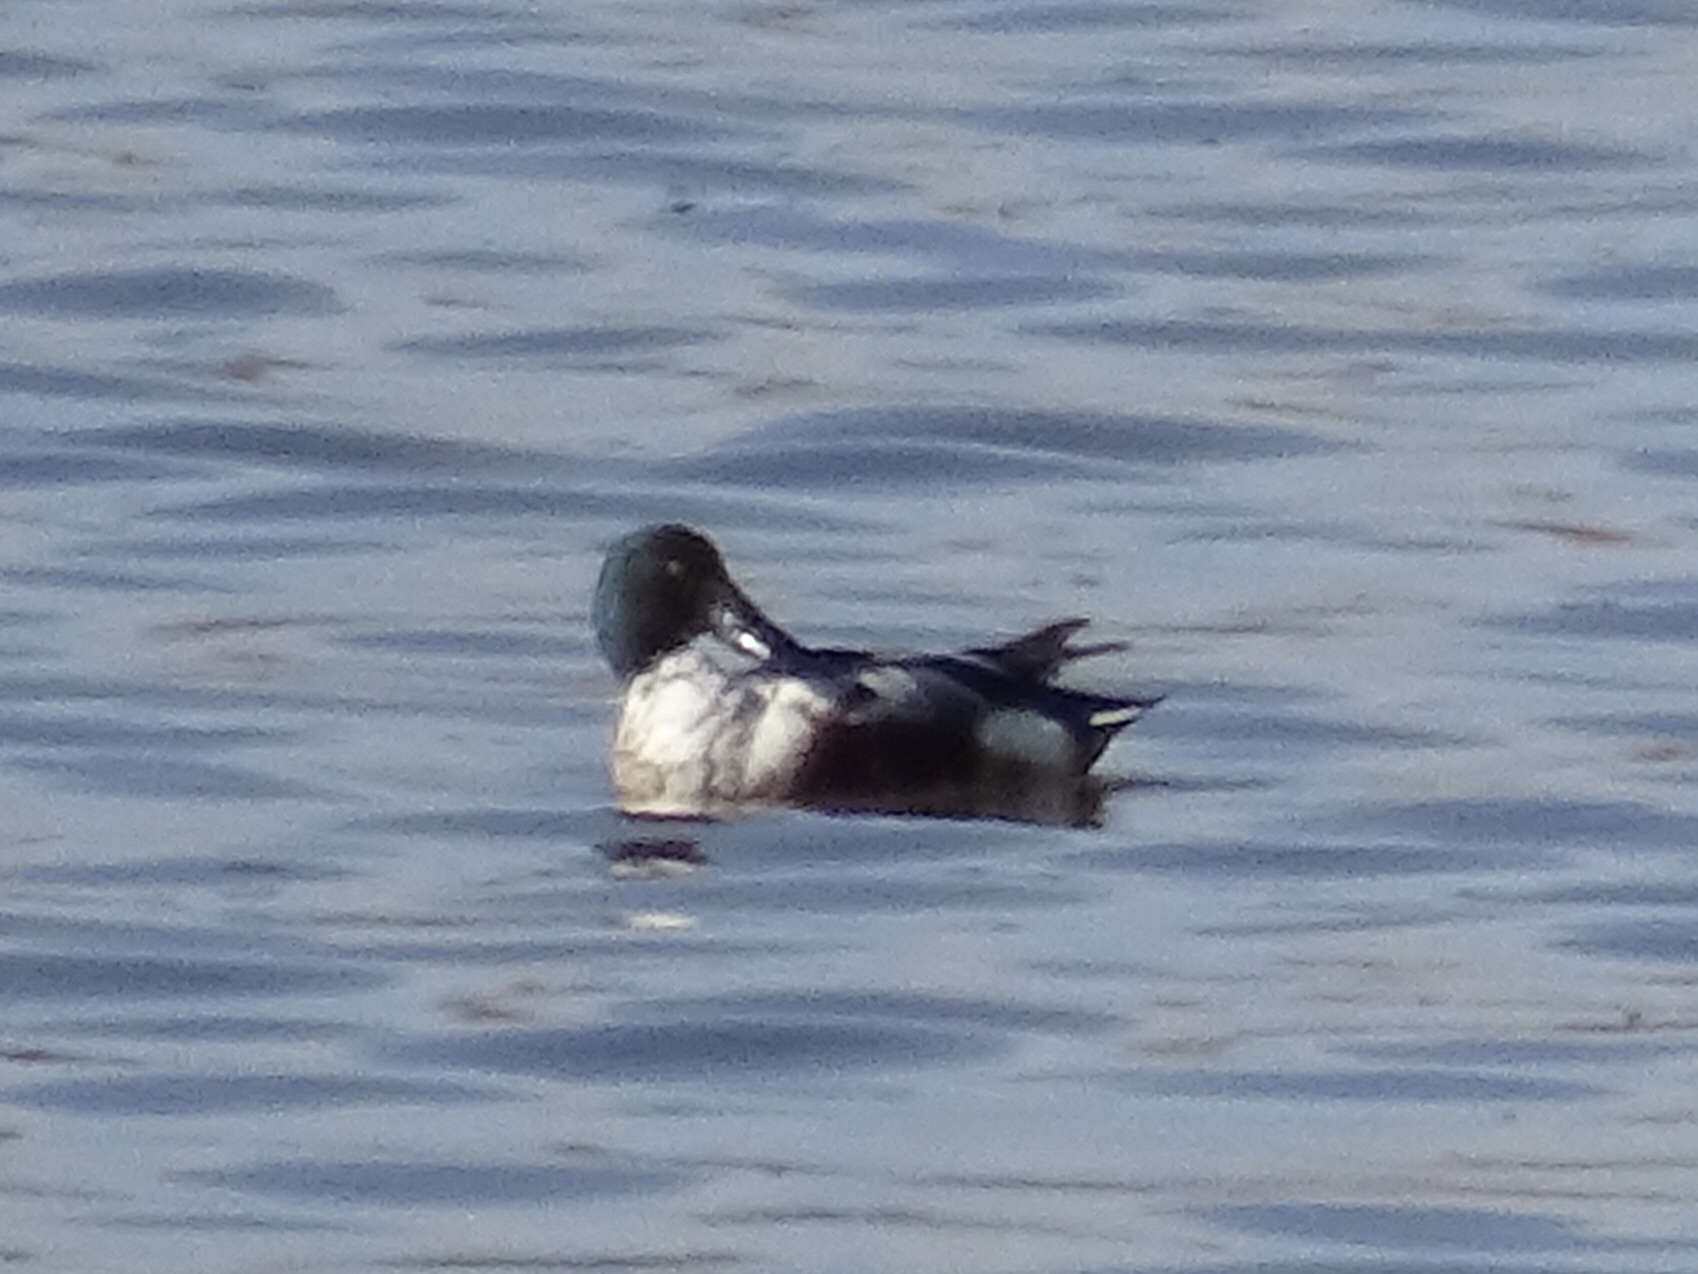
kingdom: Animalia
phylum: Chordata
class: Aves
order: Anseriformes
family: Anatidae
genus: Spatula
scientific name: Spatula clypeata
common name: Northern shoveler
